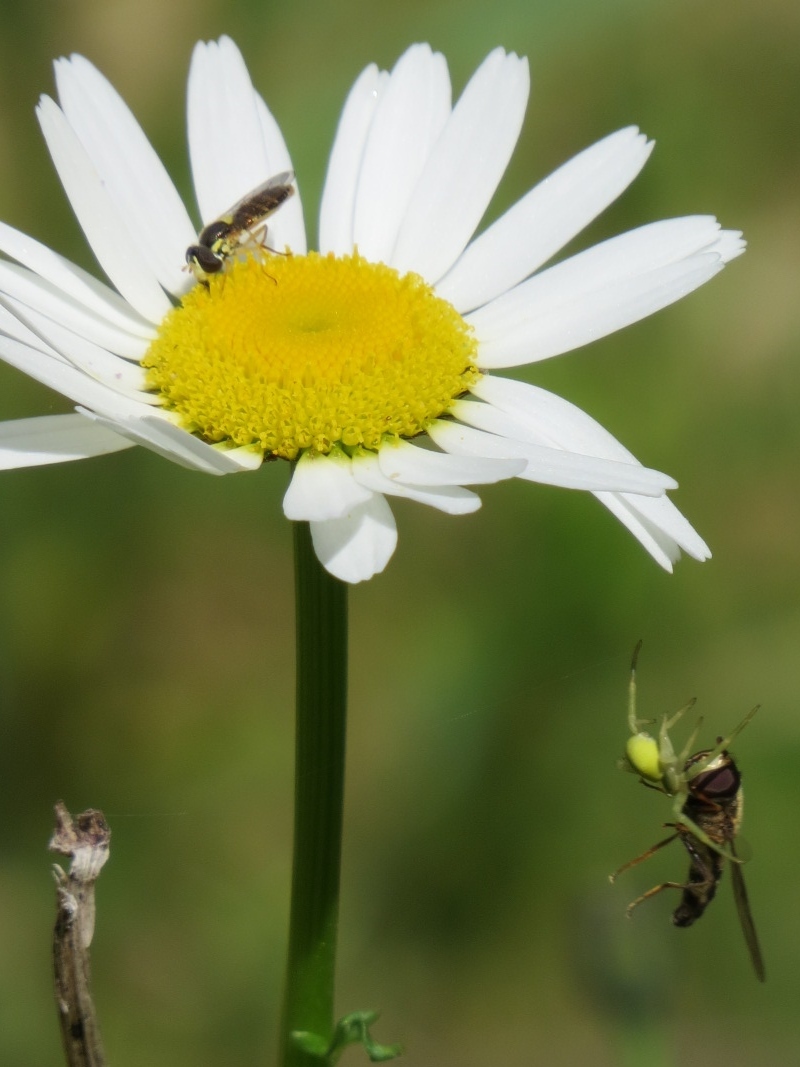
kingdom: Animalia
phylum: Arthropoda
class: Insecta
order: Diptera
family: Syrphidae
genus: Eupeodes
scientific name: Eupeodes fumipennis
